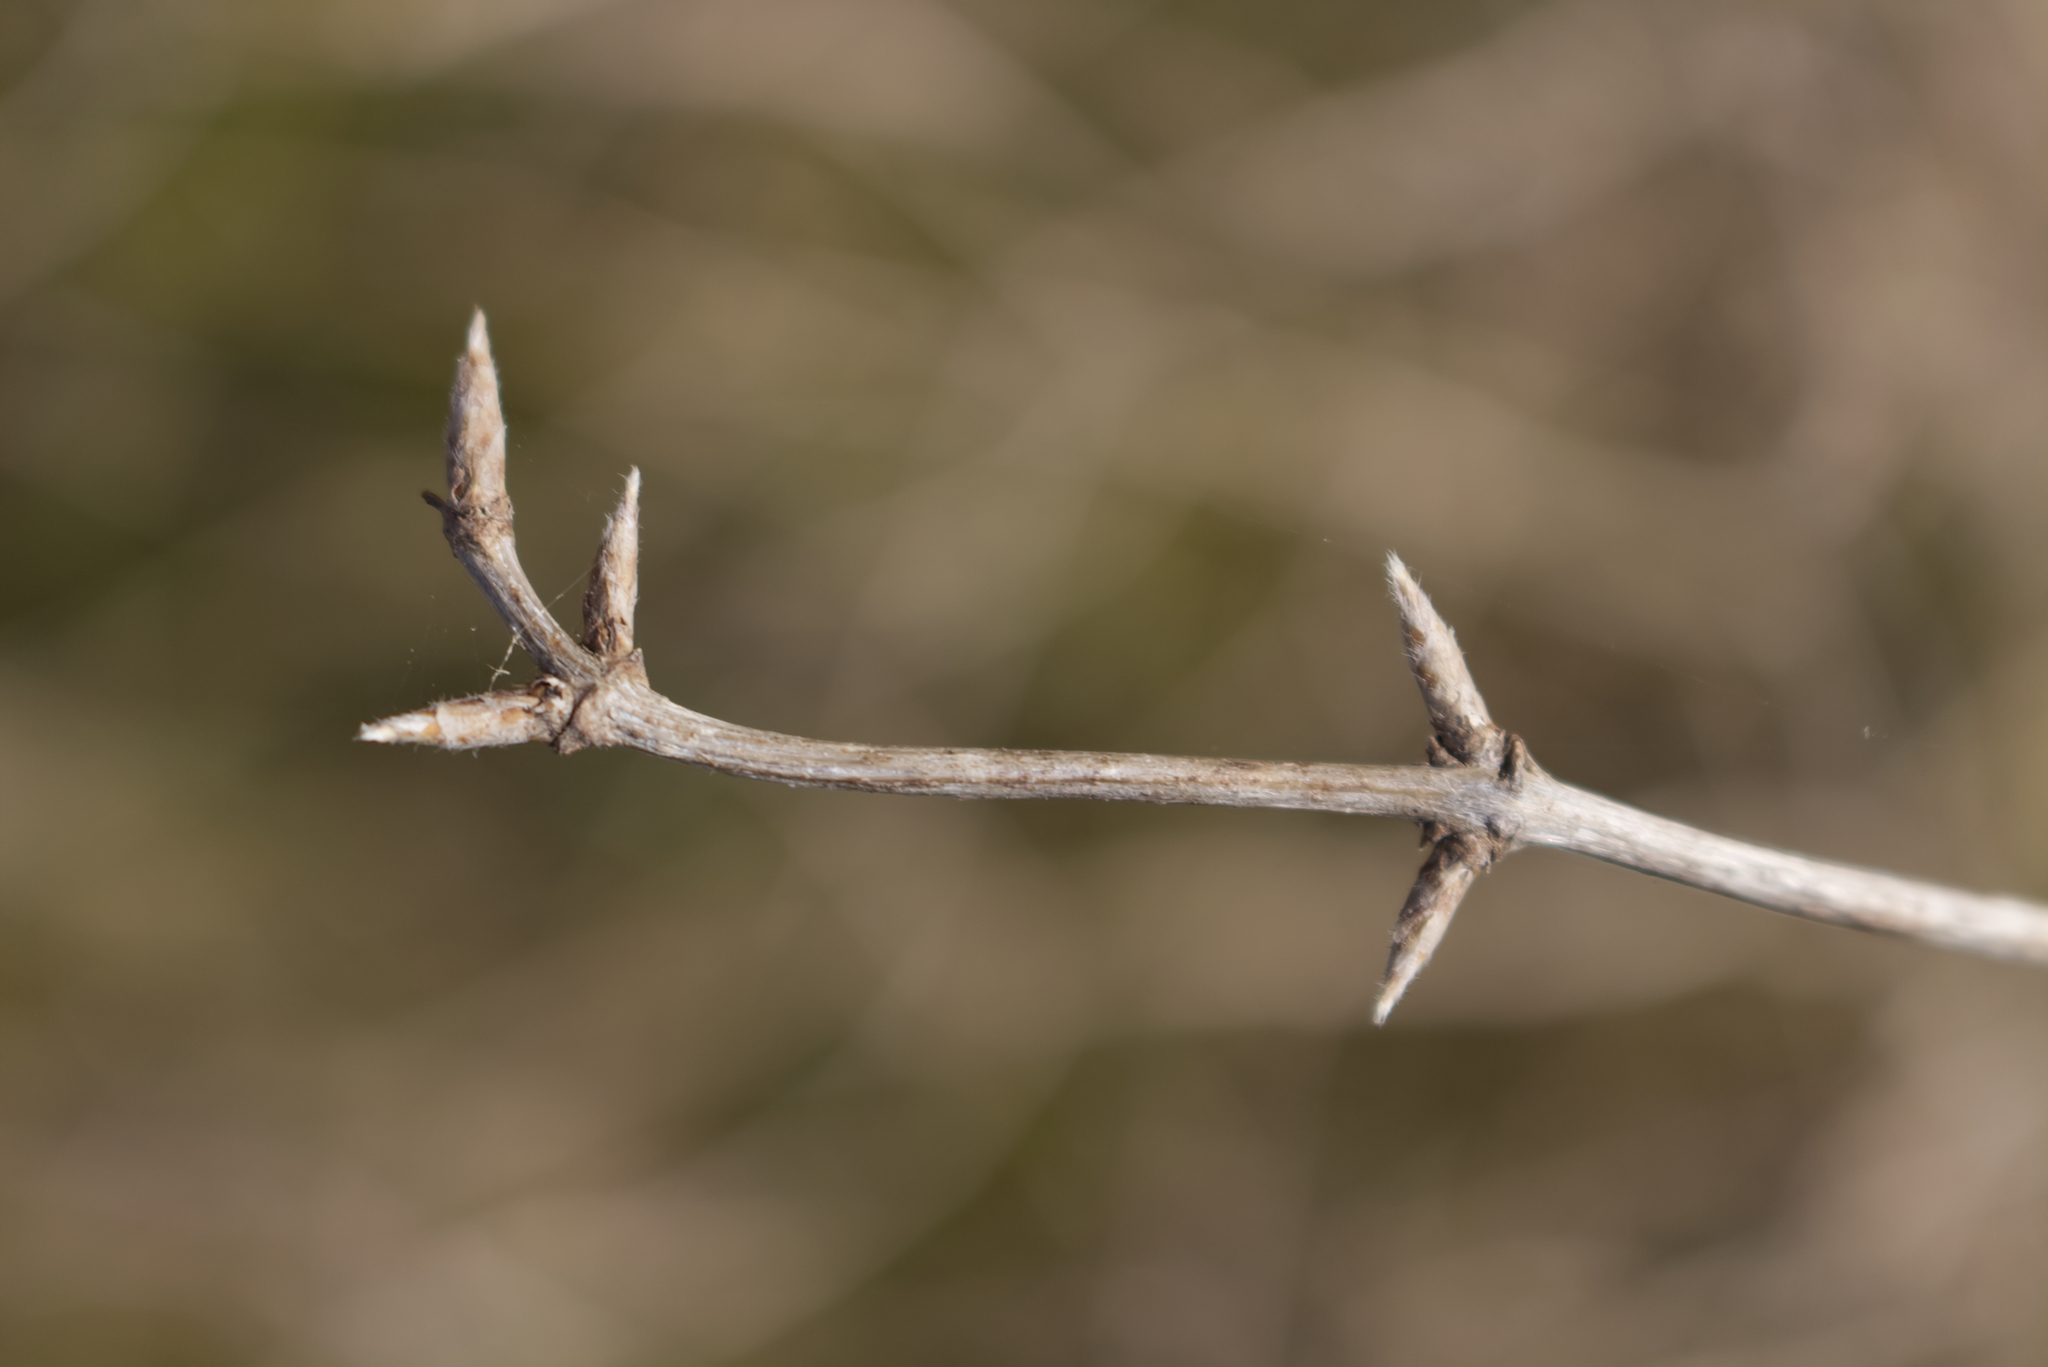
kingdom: Plantae
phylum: Tracheophyta
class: Magnoliopsida
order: Dipsacales
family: Caprifoliaceae
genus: Lonicera
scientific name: Lonicera xylosteum
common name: Fly honeysuckle
